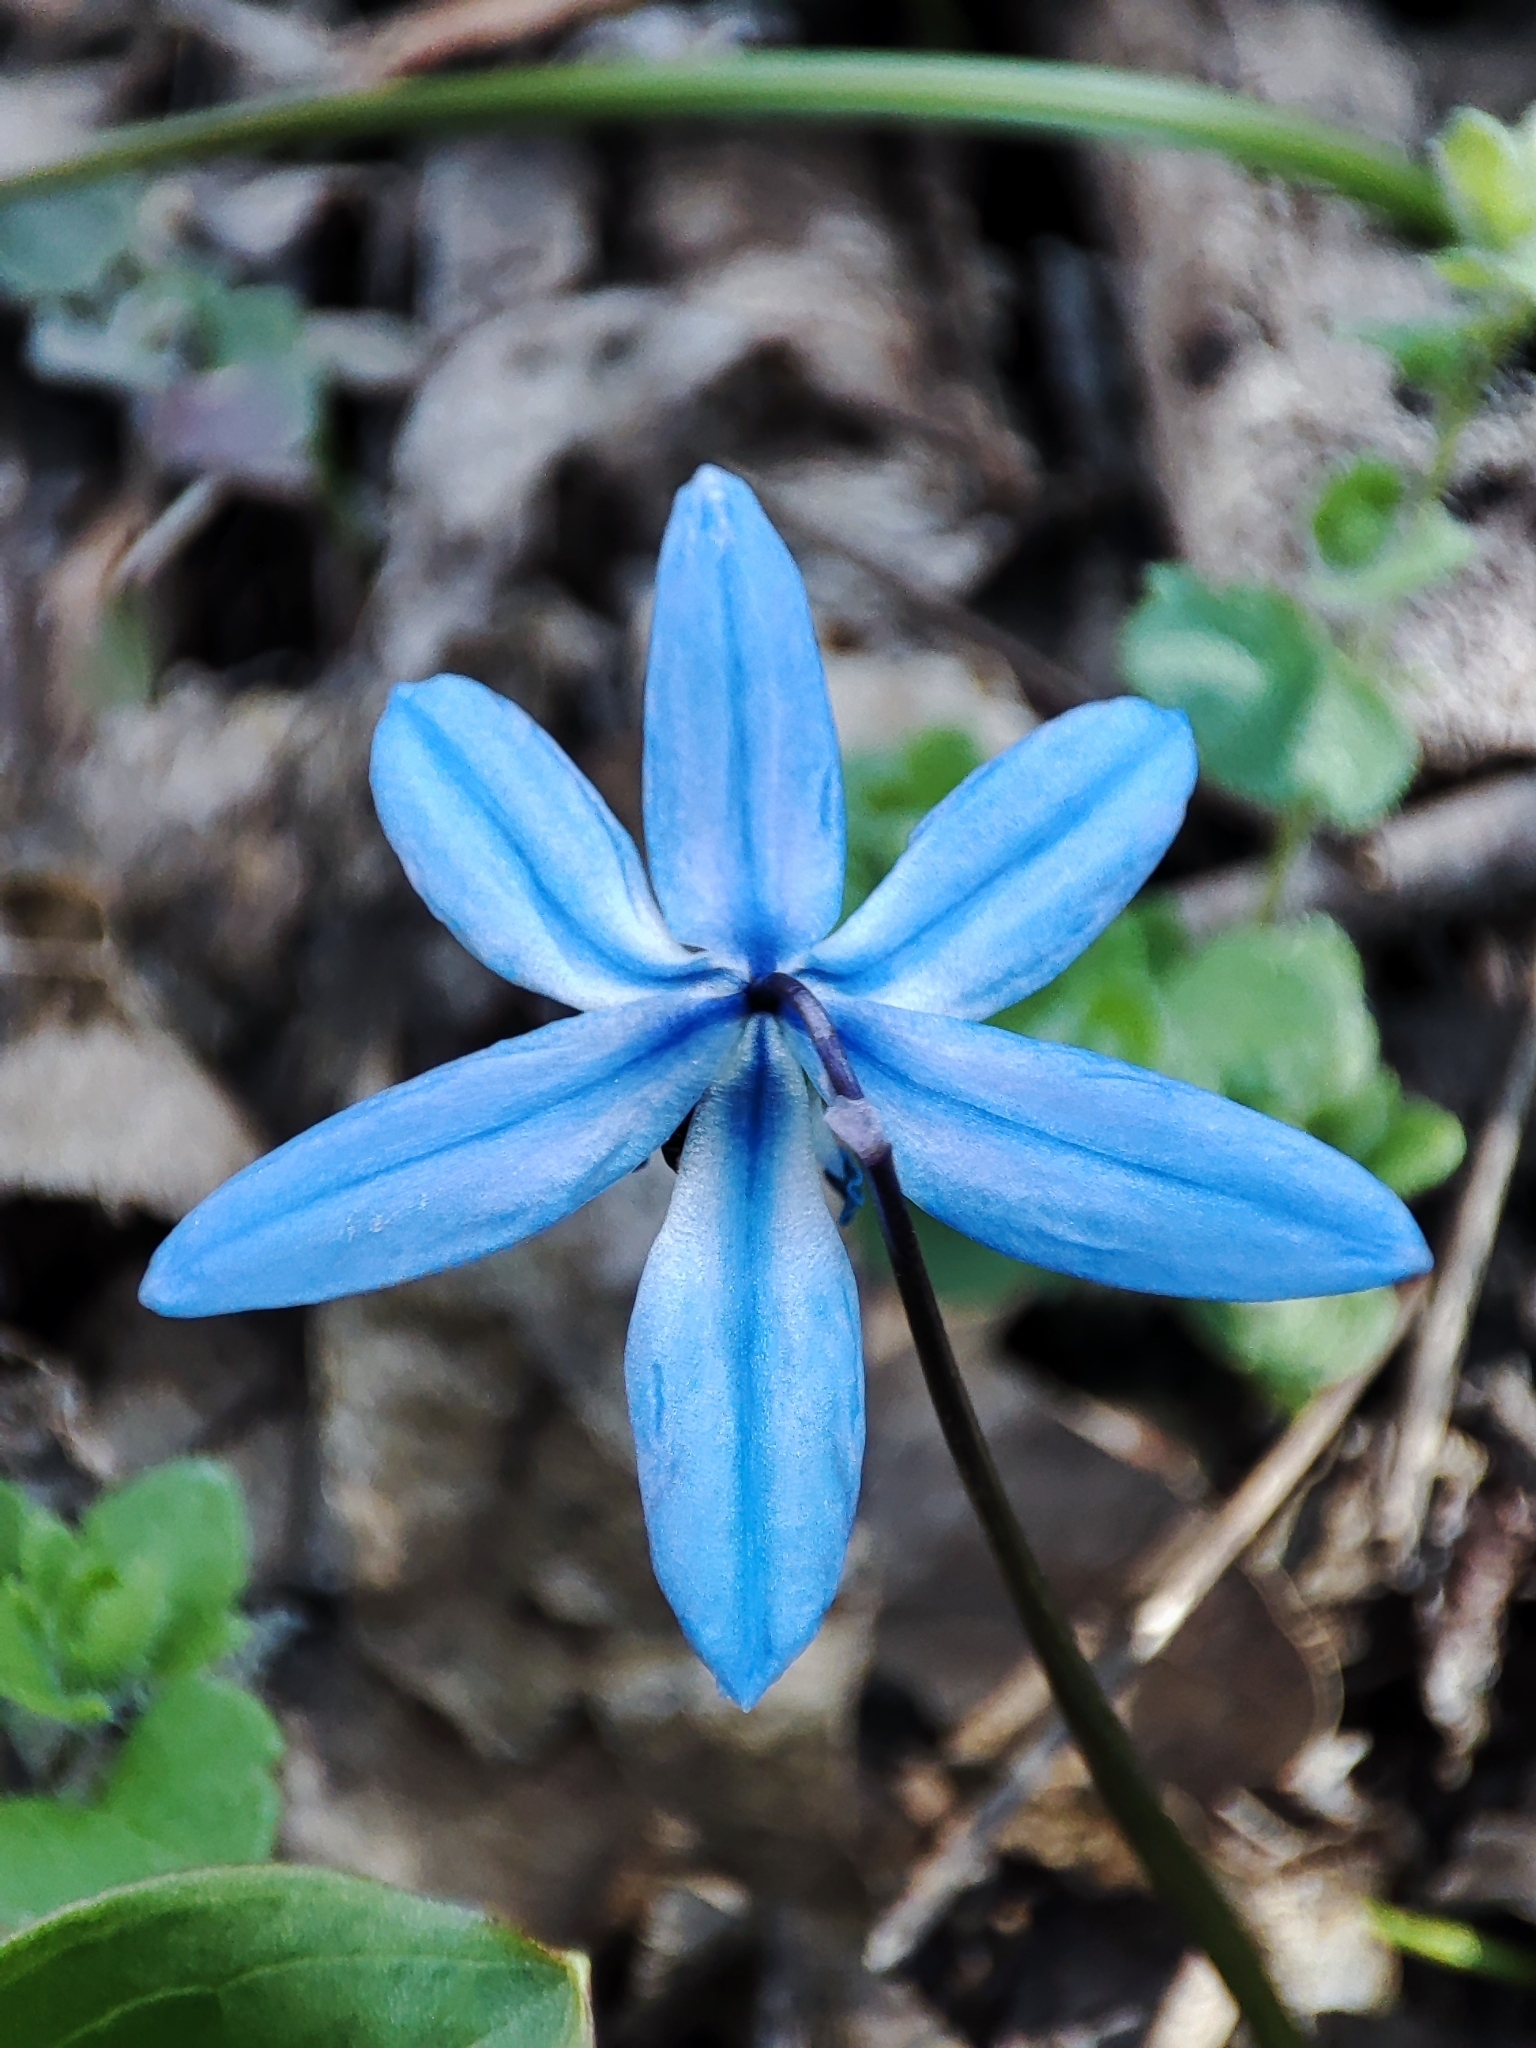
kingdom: Plantae
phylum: Tracheophyta
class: Liliopsida
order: Asparagales
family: Asparagaceae
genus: Scilla
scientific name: Scilla siberica
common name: Siberian squill
